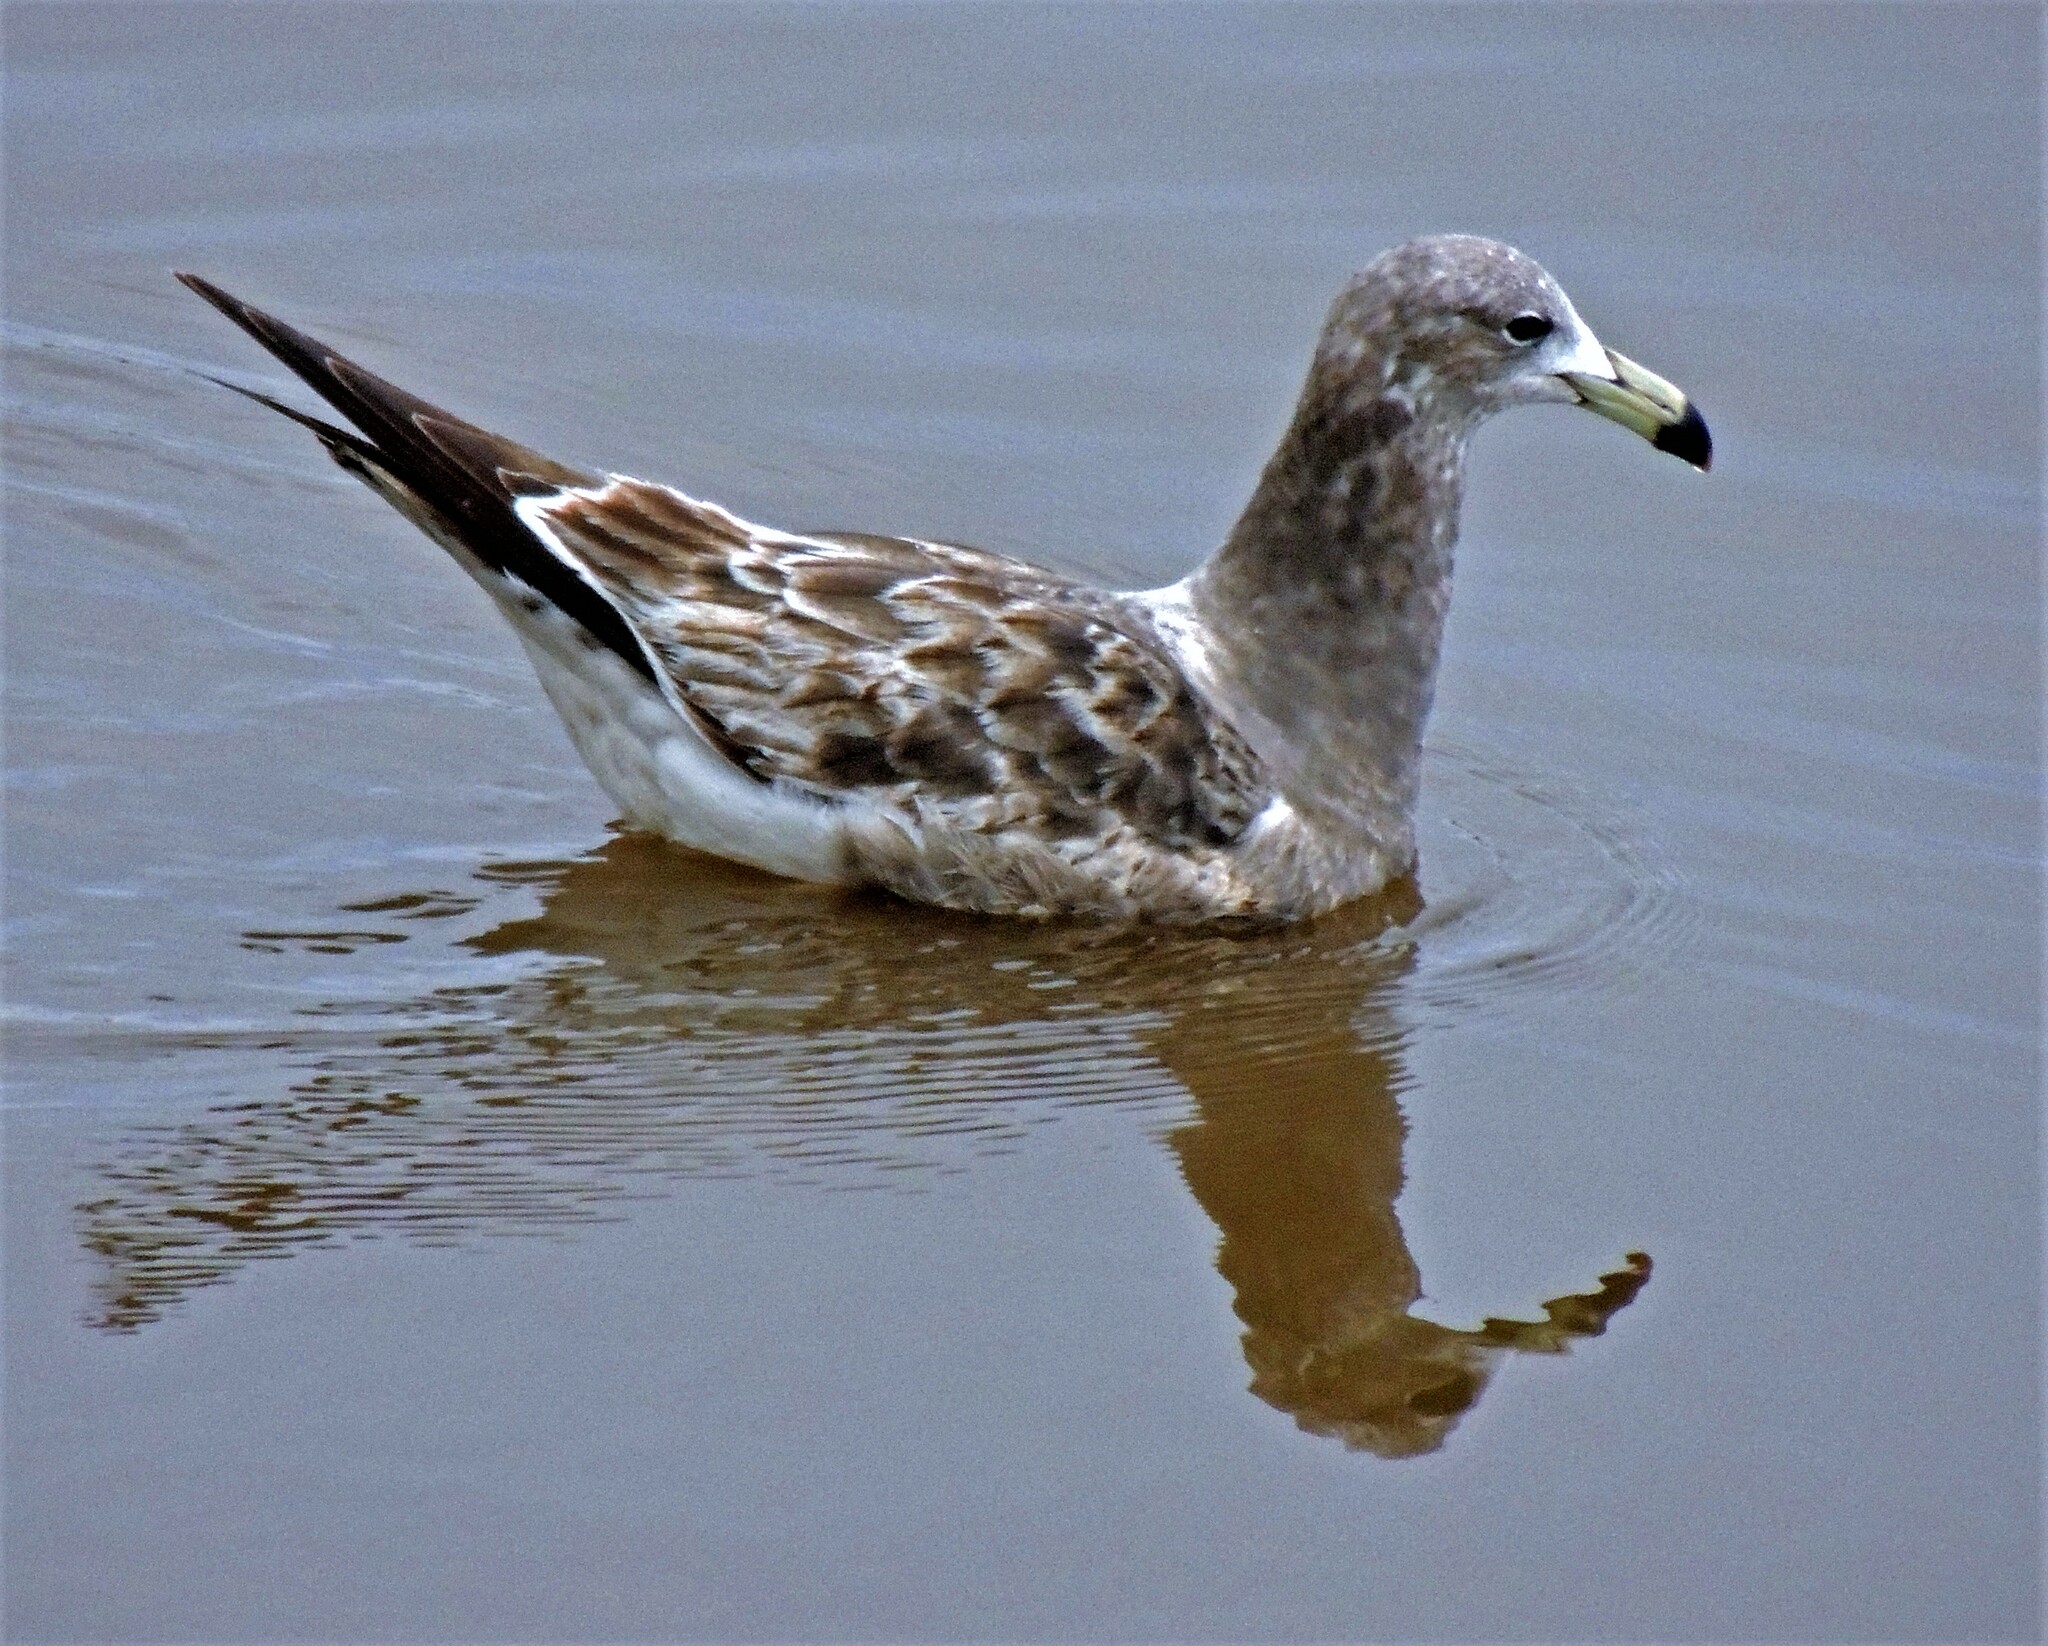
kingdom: Animalia
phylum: Chordata
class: Aves
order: Charadriiformes
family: Laridae
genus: Larus
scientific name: Larus atlanticus
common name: Olrog's gull
